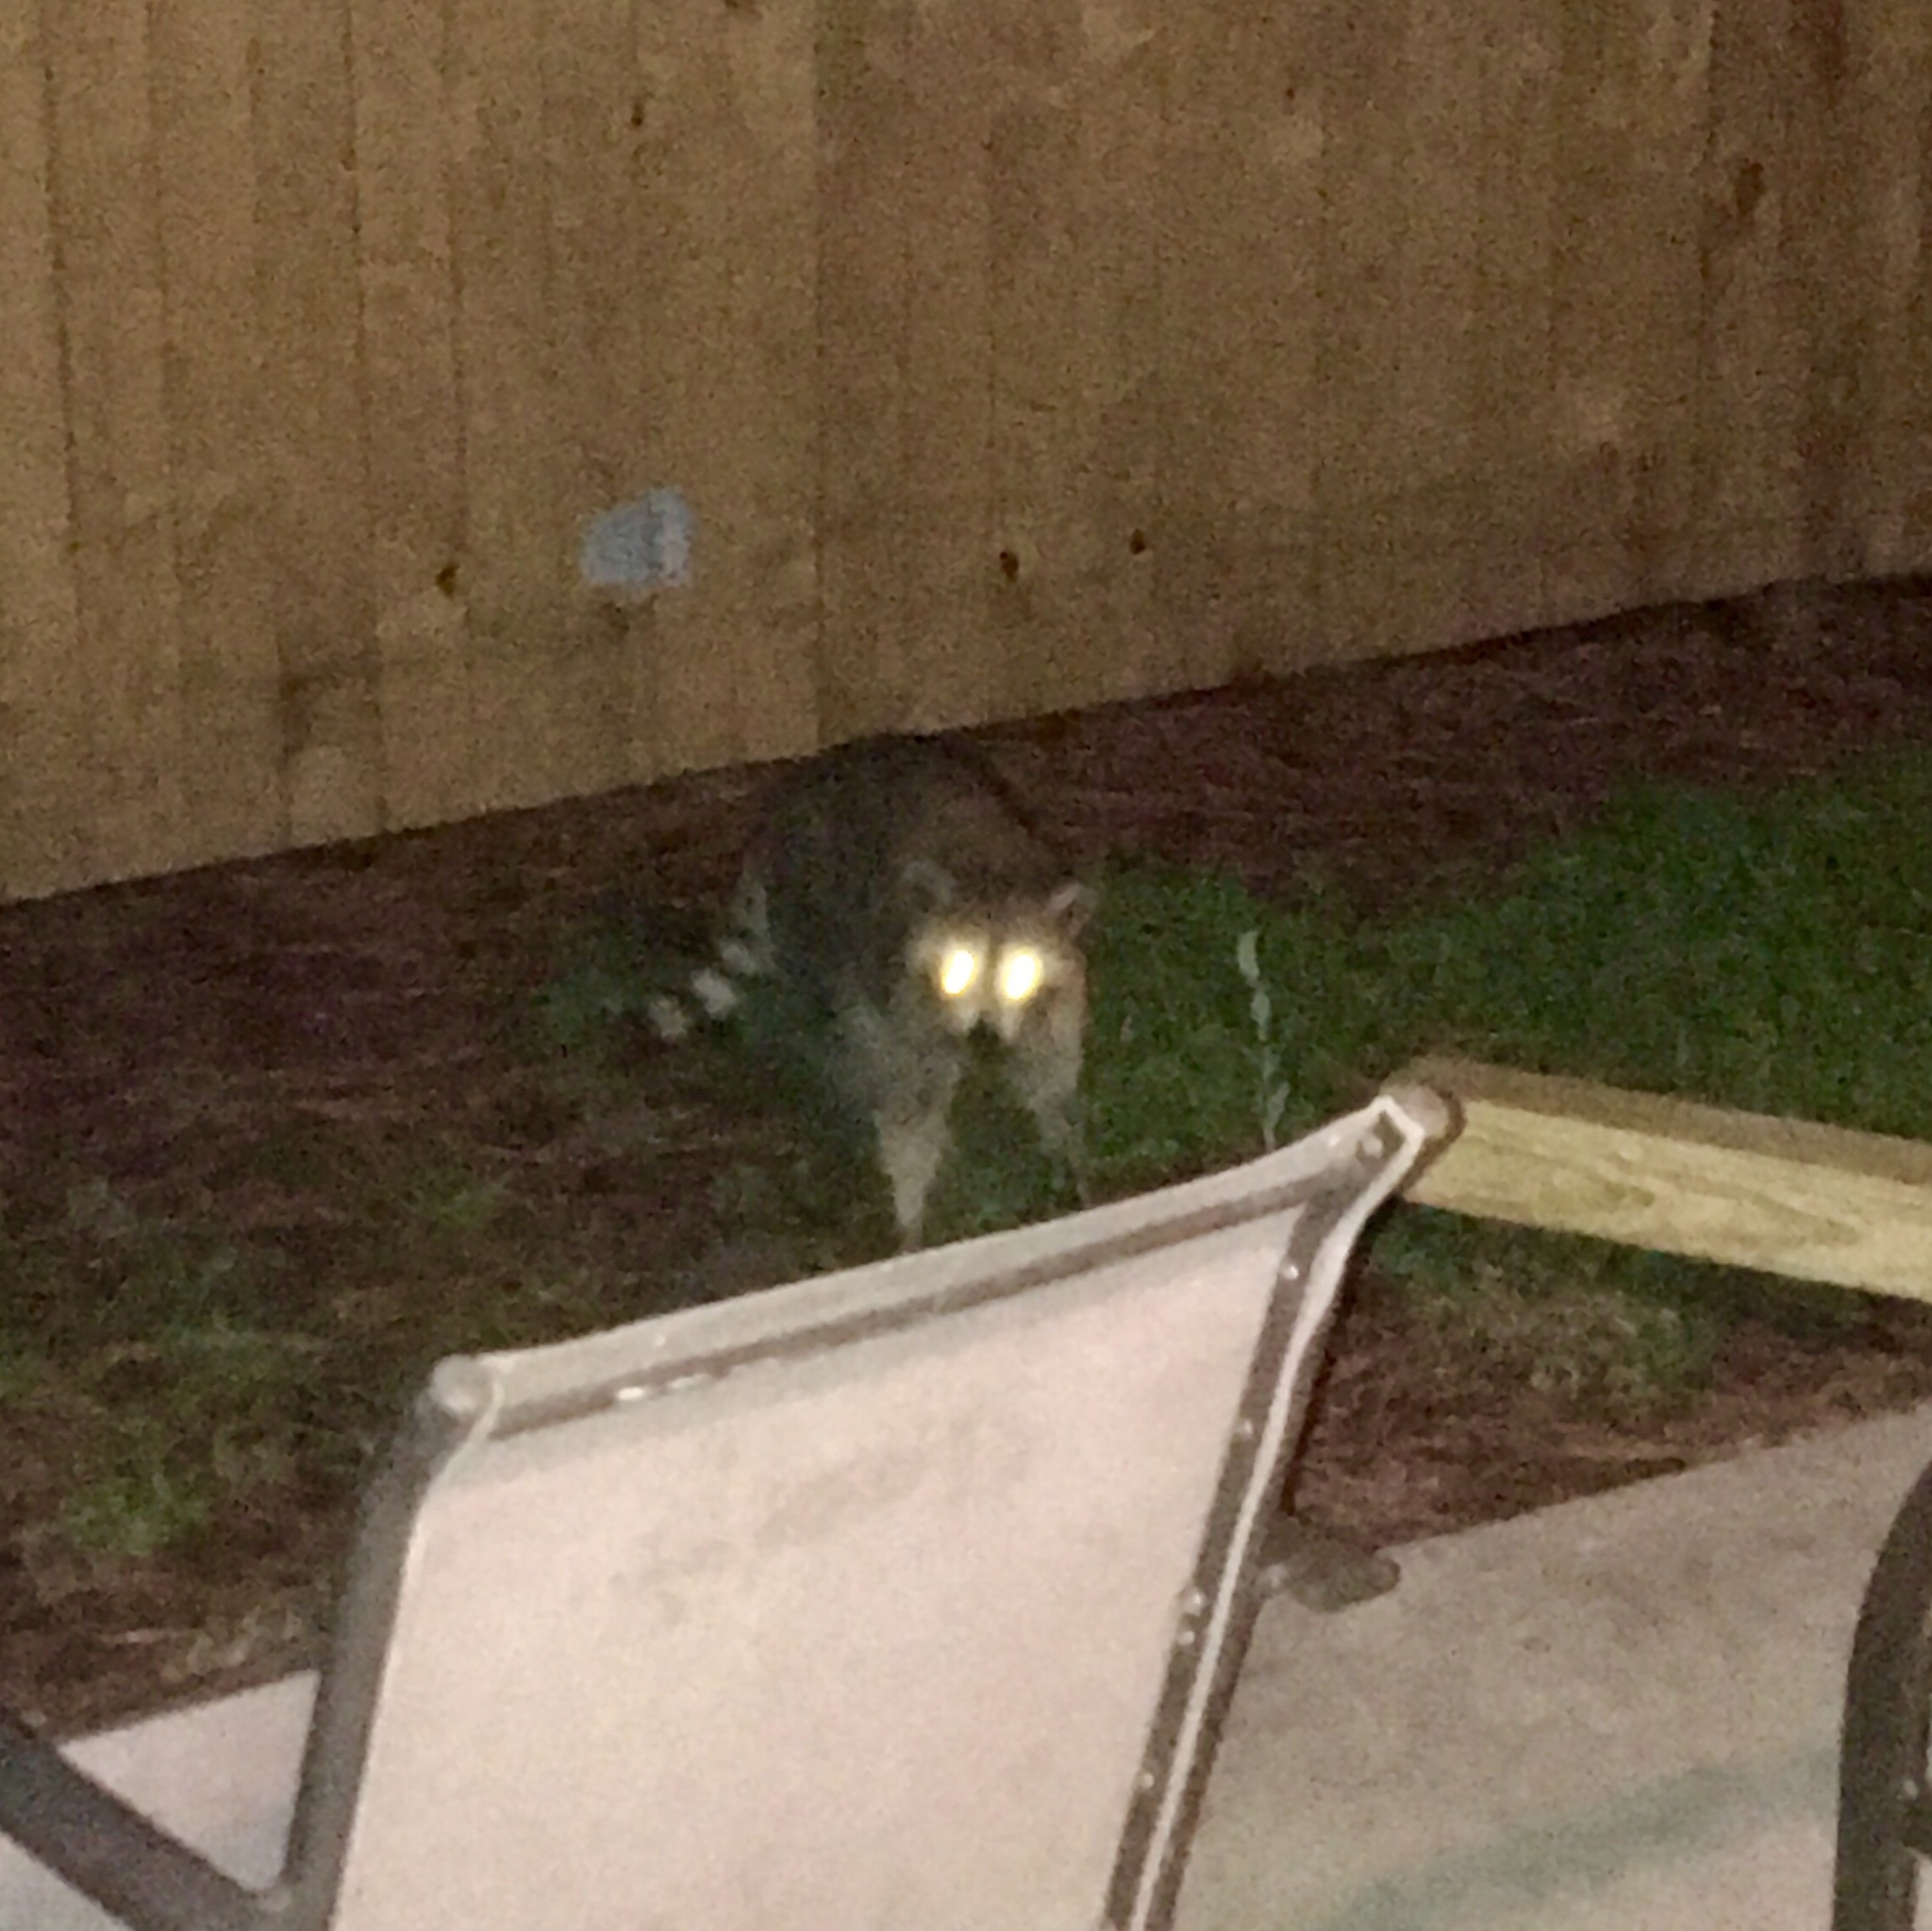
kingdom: Animalia
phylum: Chordata
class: Mammalia
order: Carnivora
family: Procyonidae
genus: Procyon
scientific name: Procyon lotor
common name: Raccoon
